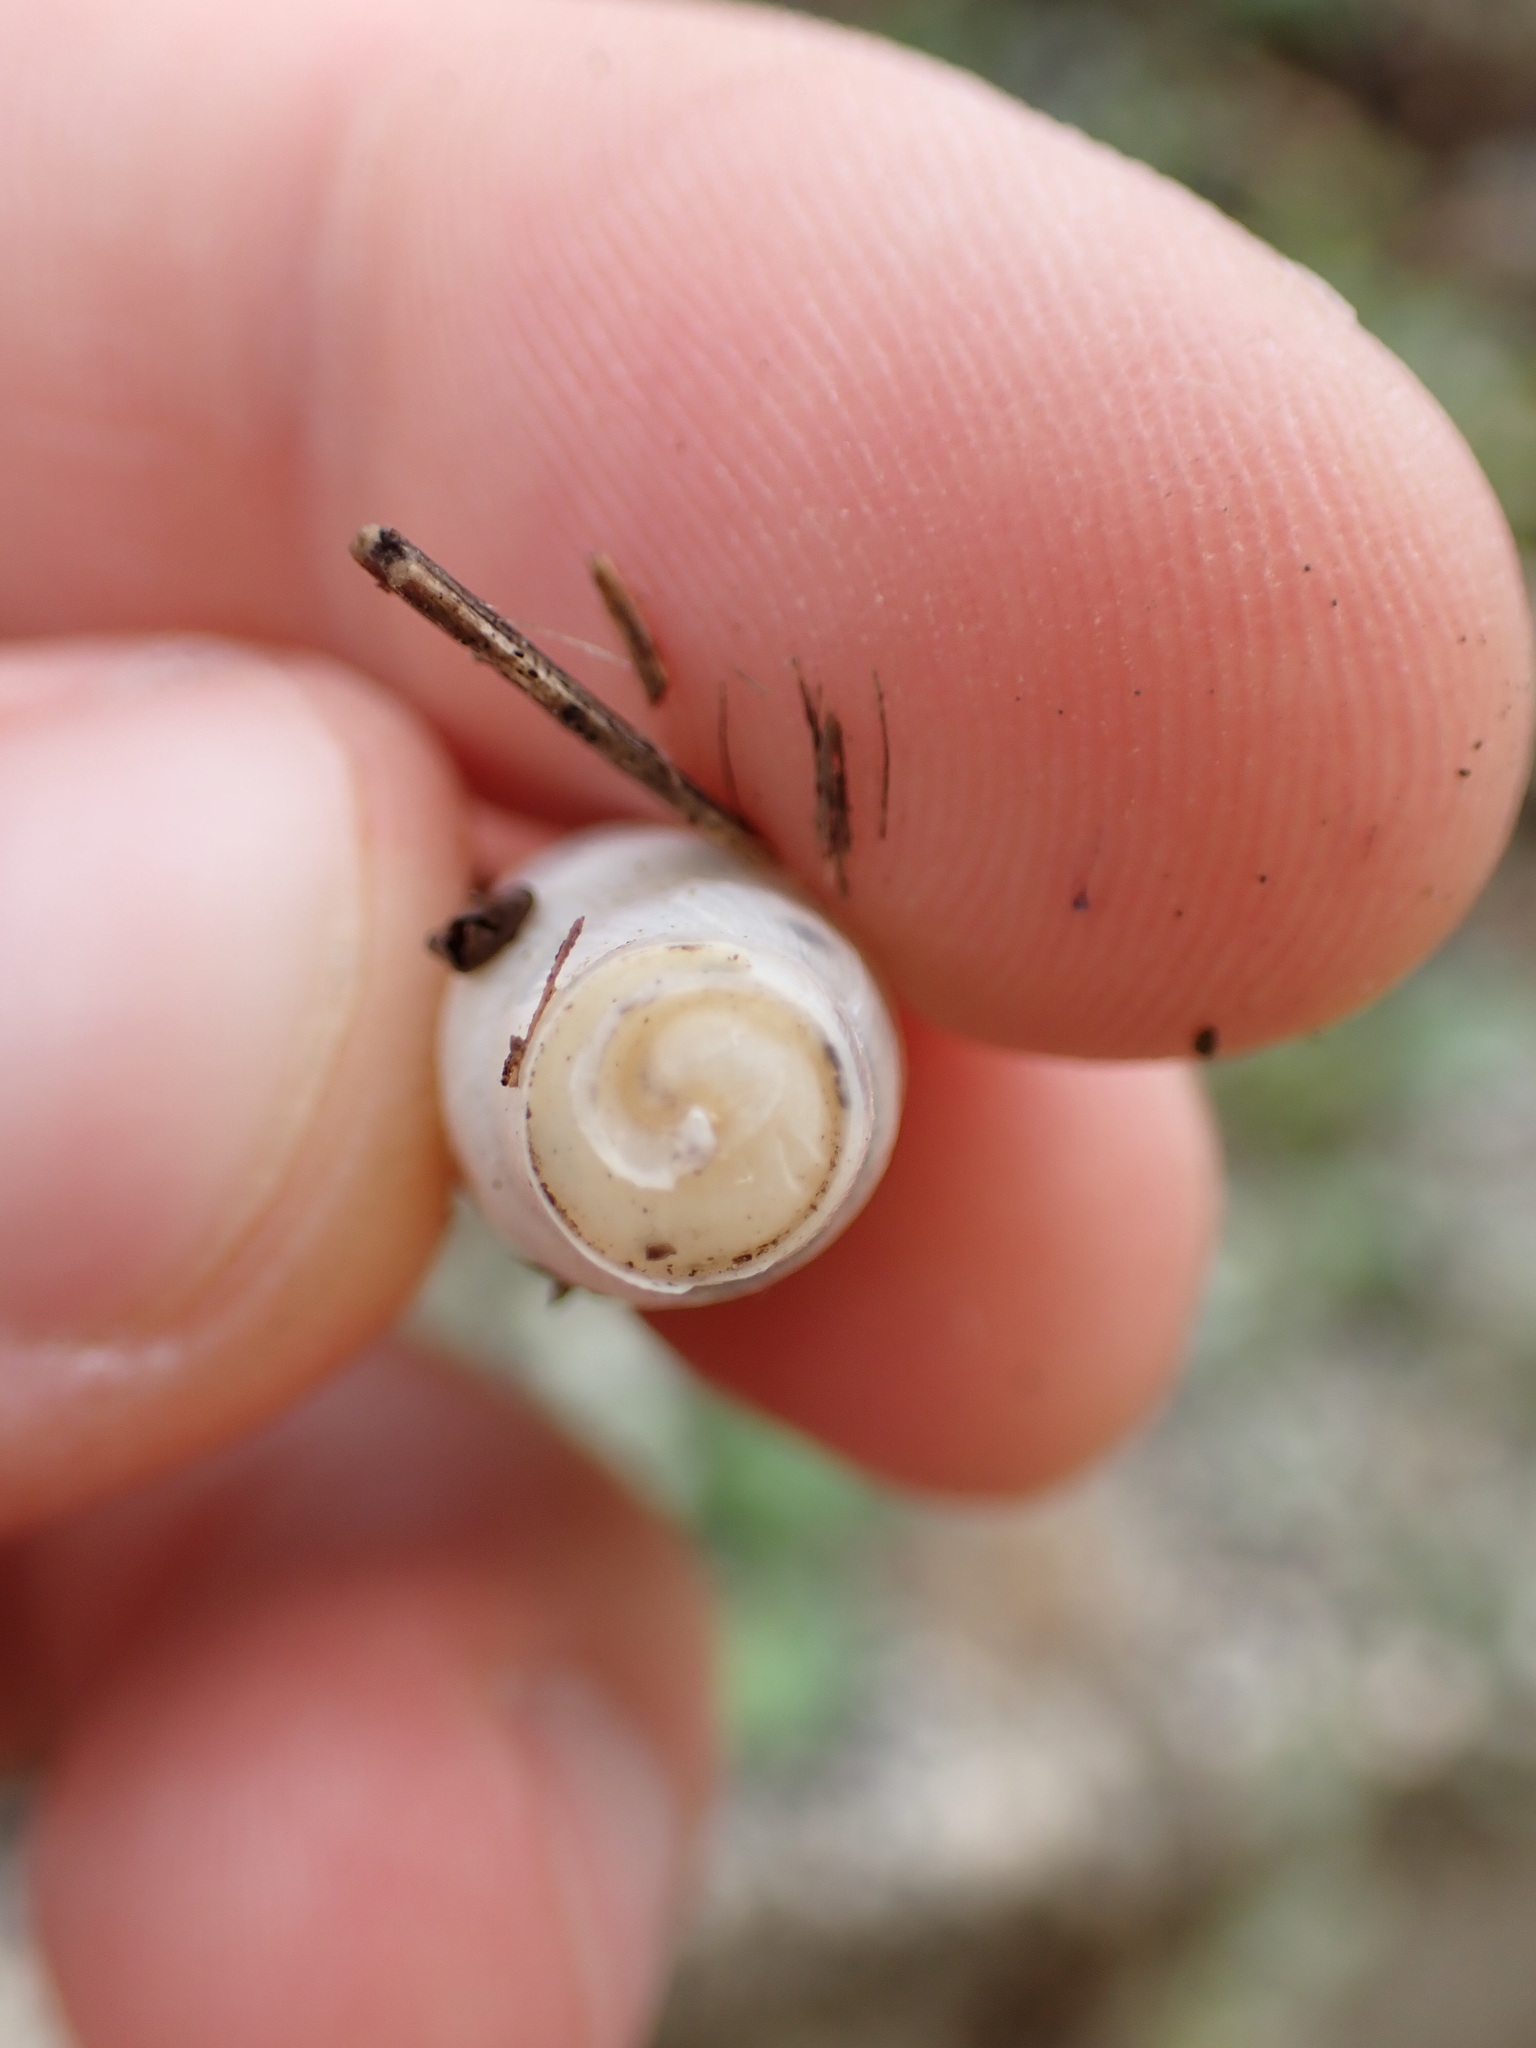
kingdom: Animalia
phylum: Mollusca
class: Gastropoda
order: Stylommatophora
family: Achatinidae
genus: Rumina
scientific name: Rumina decollata
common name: Decollate snail
